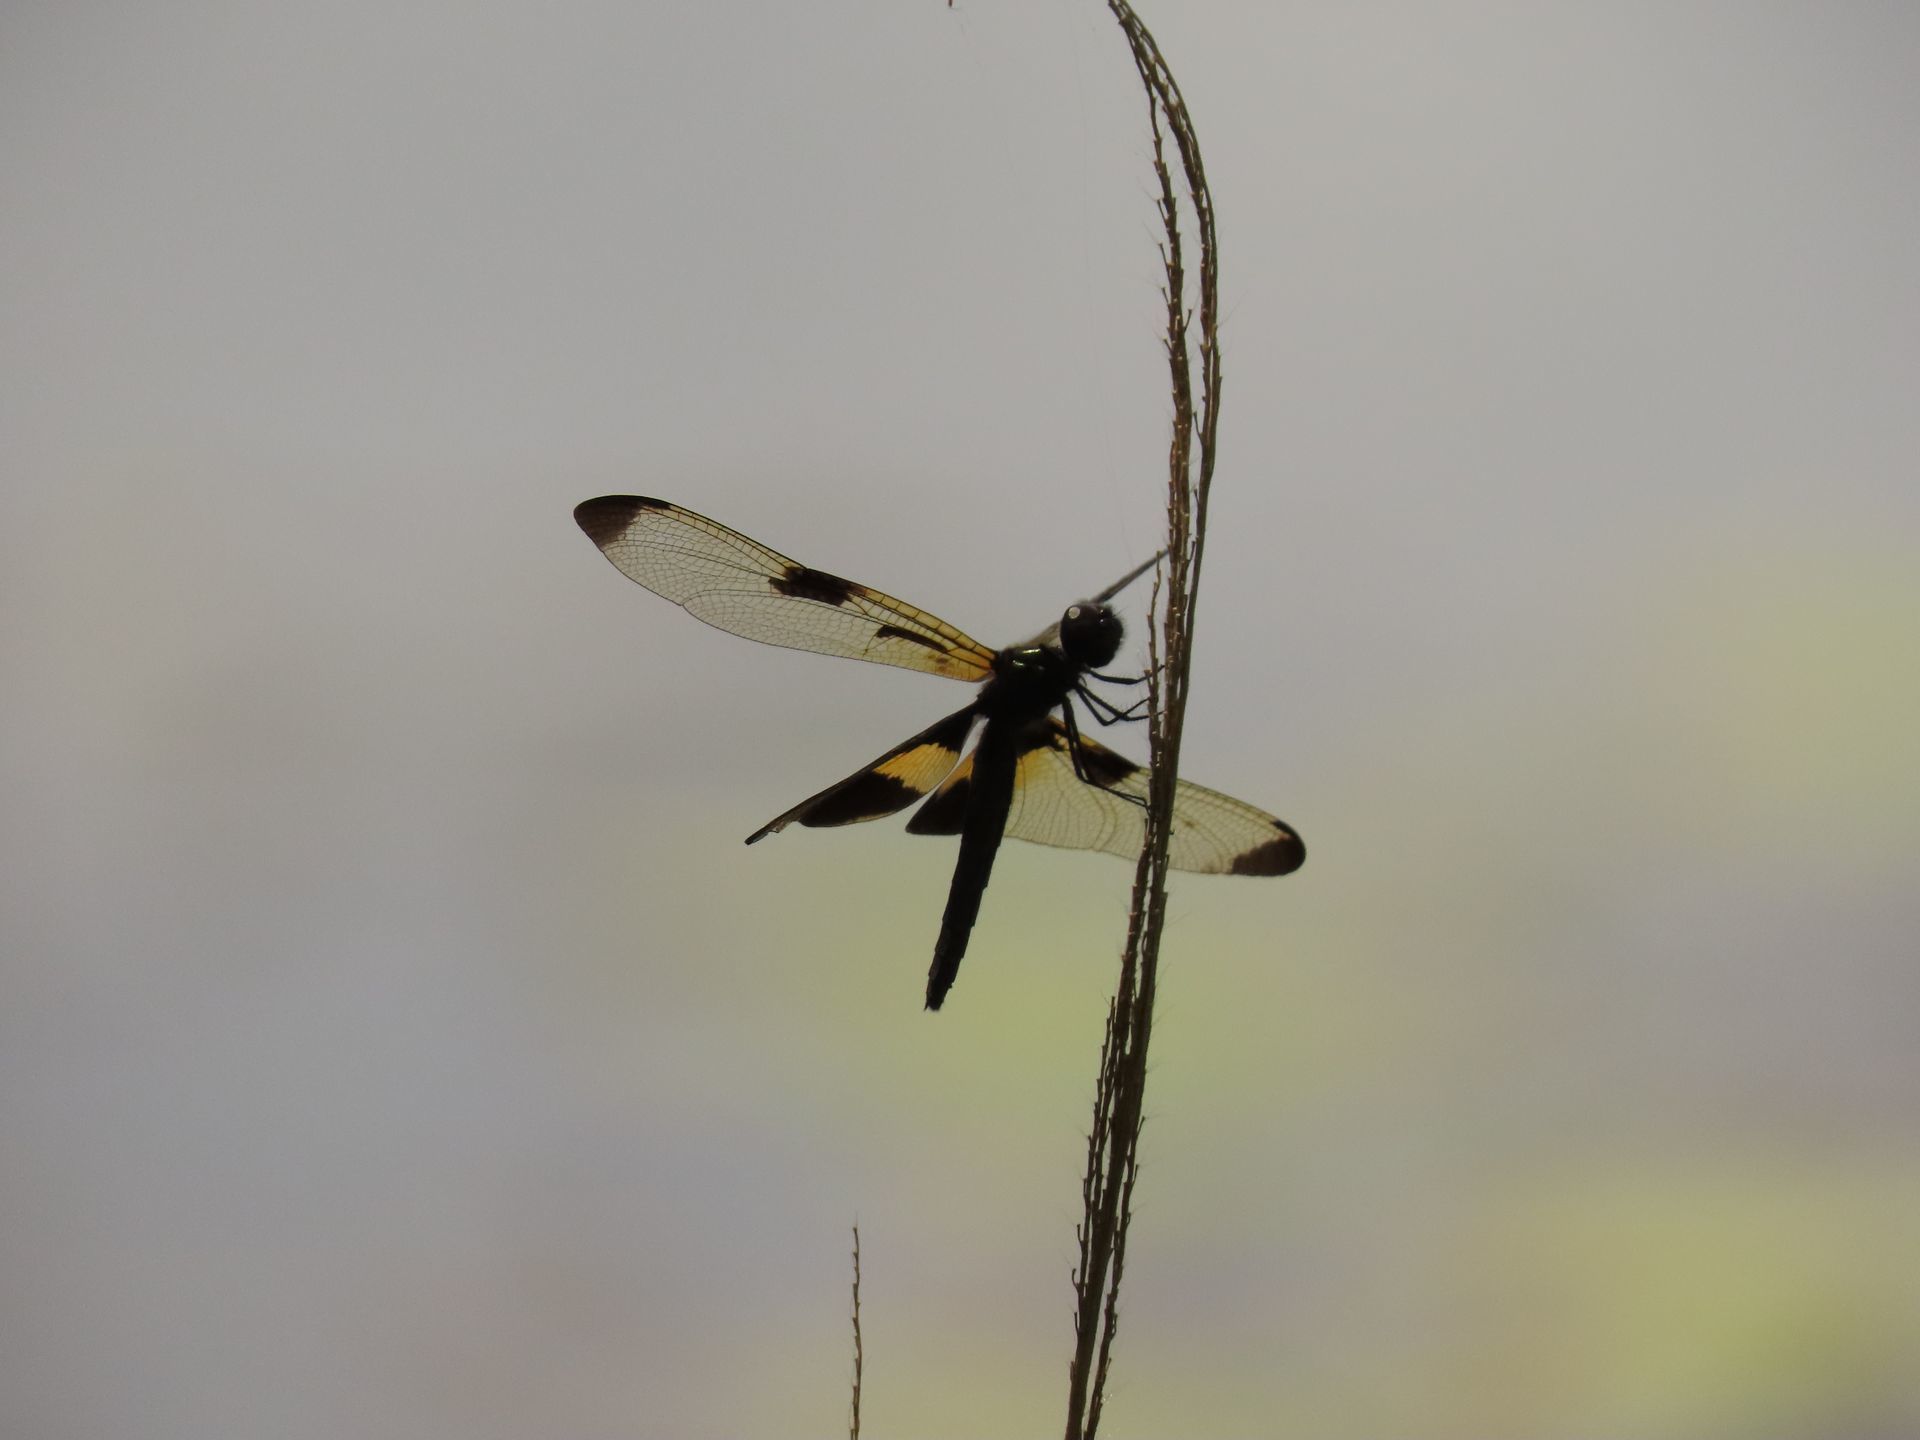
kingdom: Animalia
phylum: Arthropoda
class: Insecta
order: Odonata
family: Libellulidae
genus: Rhyothemis
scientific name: Rhyothemis phyllis
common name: Yellow-barred flutterer
